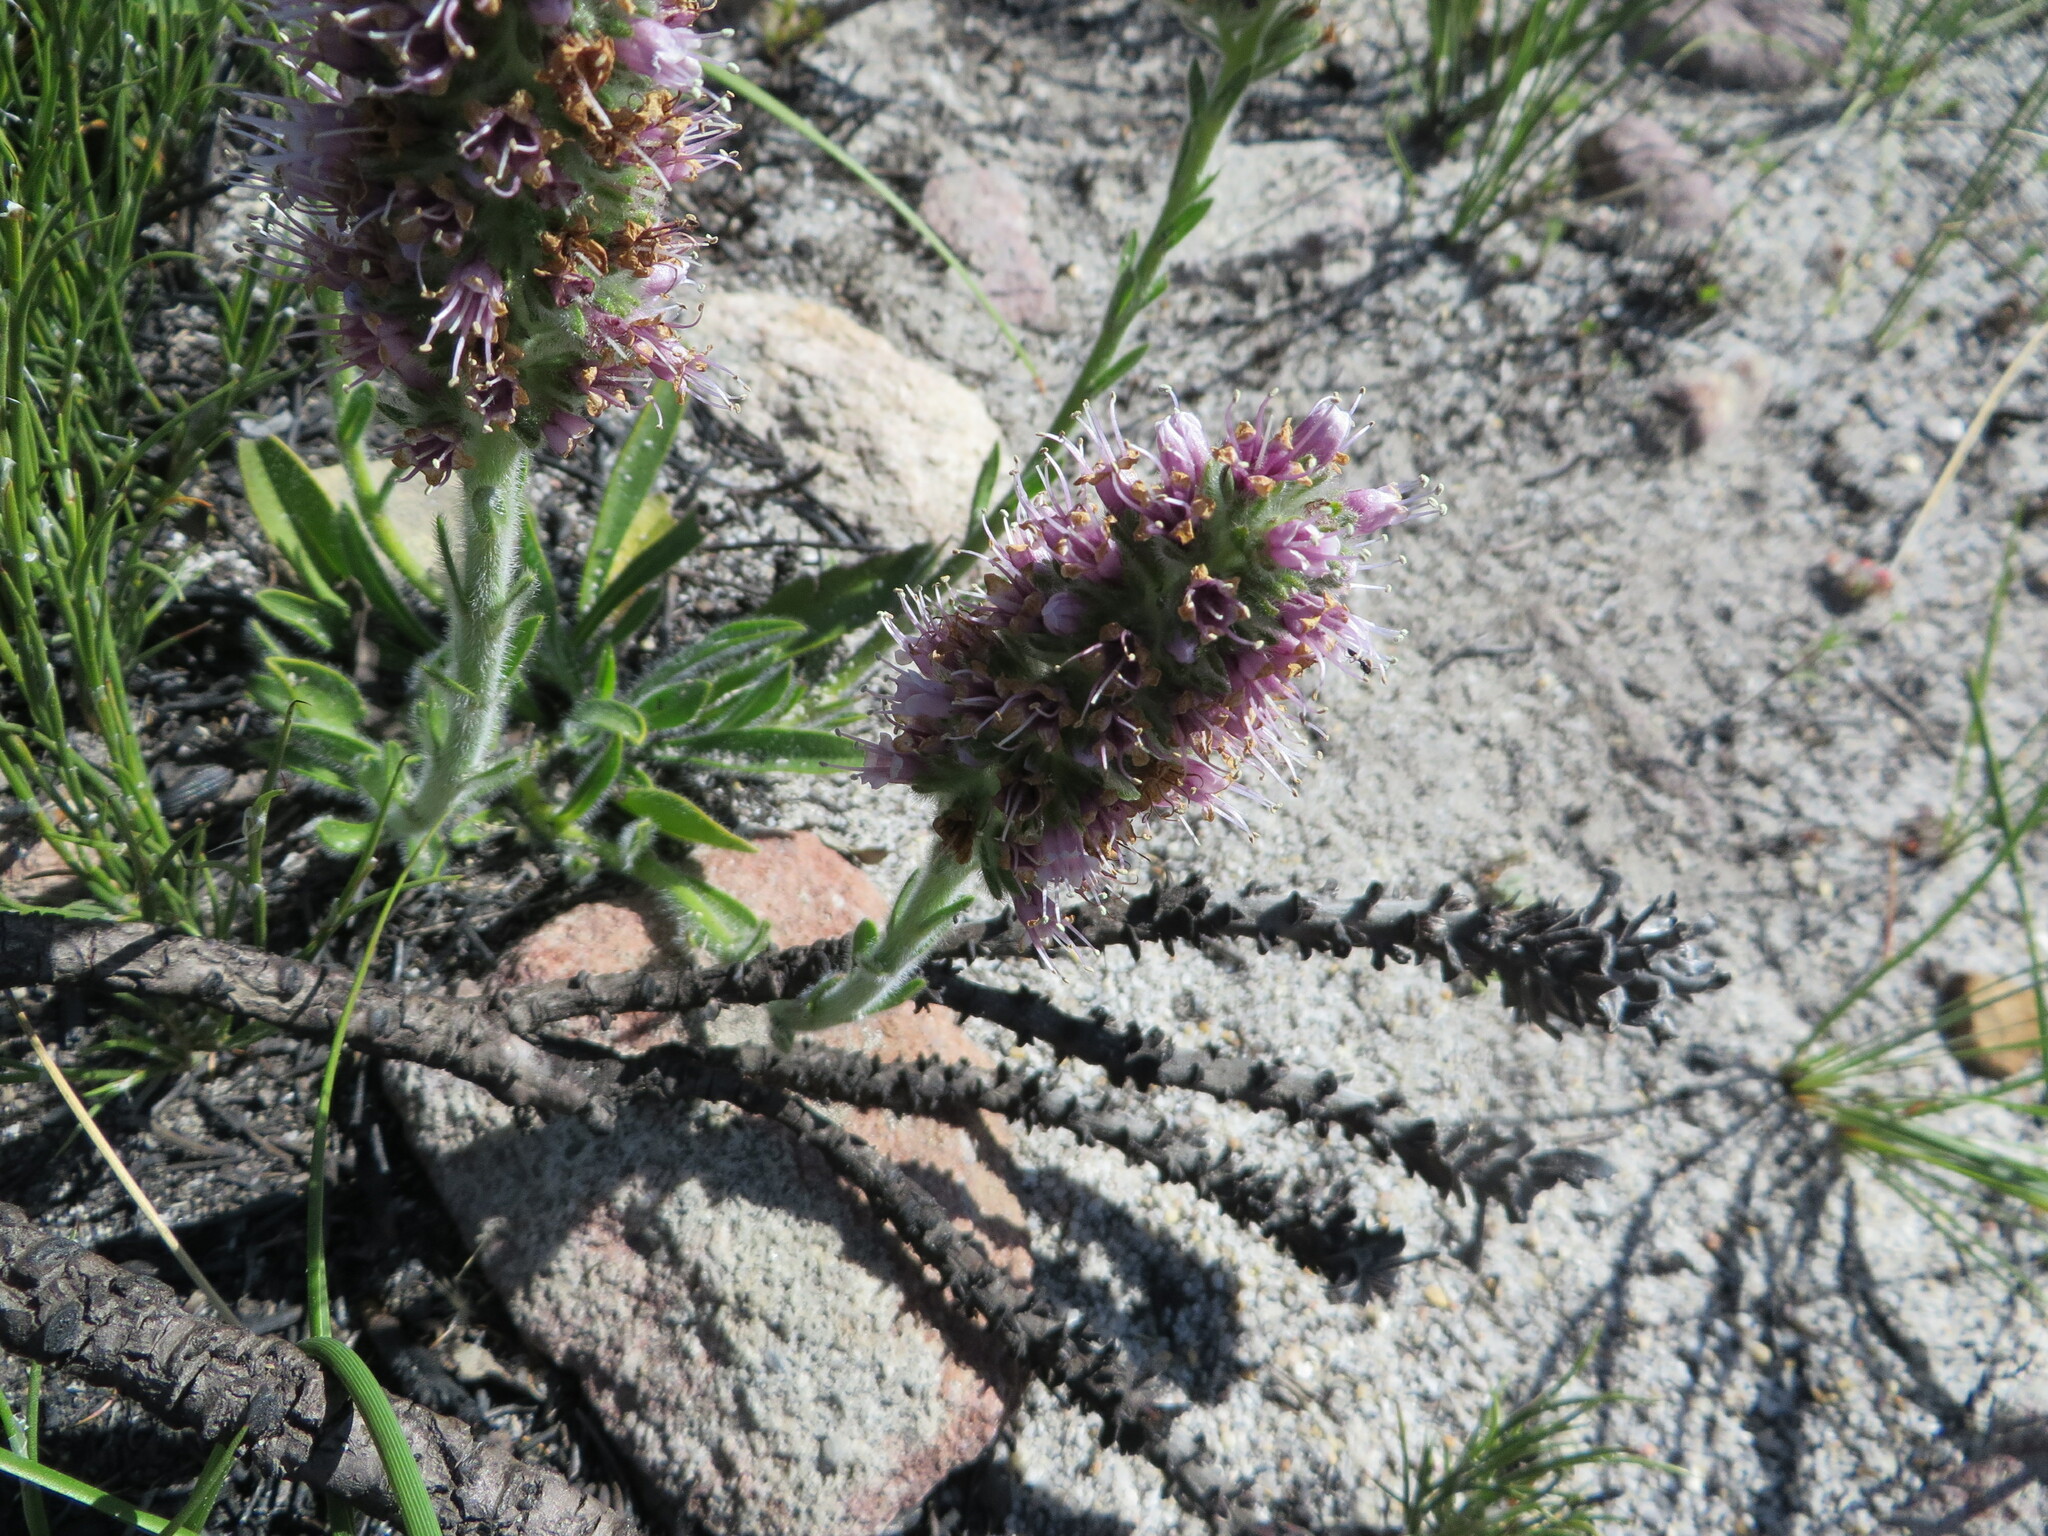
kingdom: Plantae
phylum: Tracheophyta
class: Magnoliopsida
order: Boraginales
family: Boraginaceae
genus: Lobostemon
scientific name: Lobostemon ecklonianus
